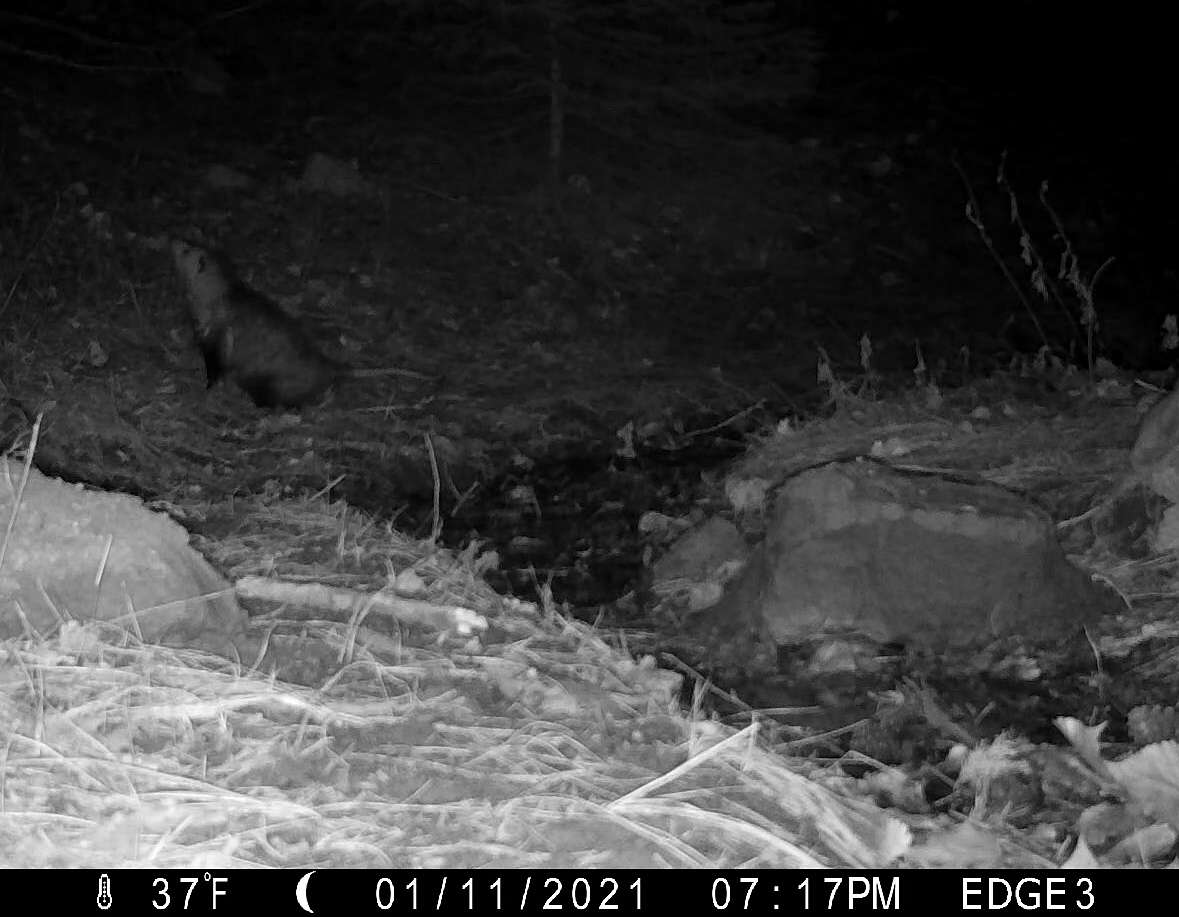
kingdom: Animalia
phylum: Chordata
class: Mammalia
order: Didelphimorphia
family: Didelphidae
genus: Didelphis
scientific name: Didelphis virginiana
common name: Virginia opossum
